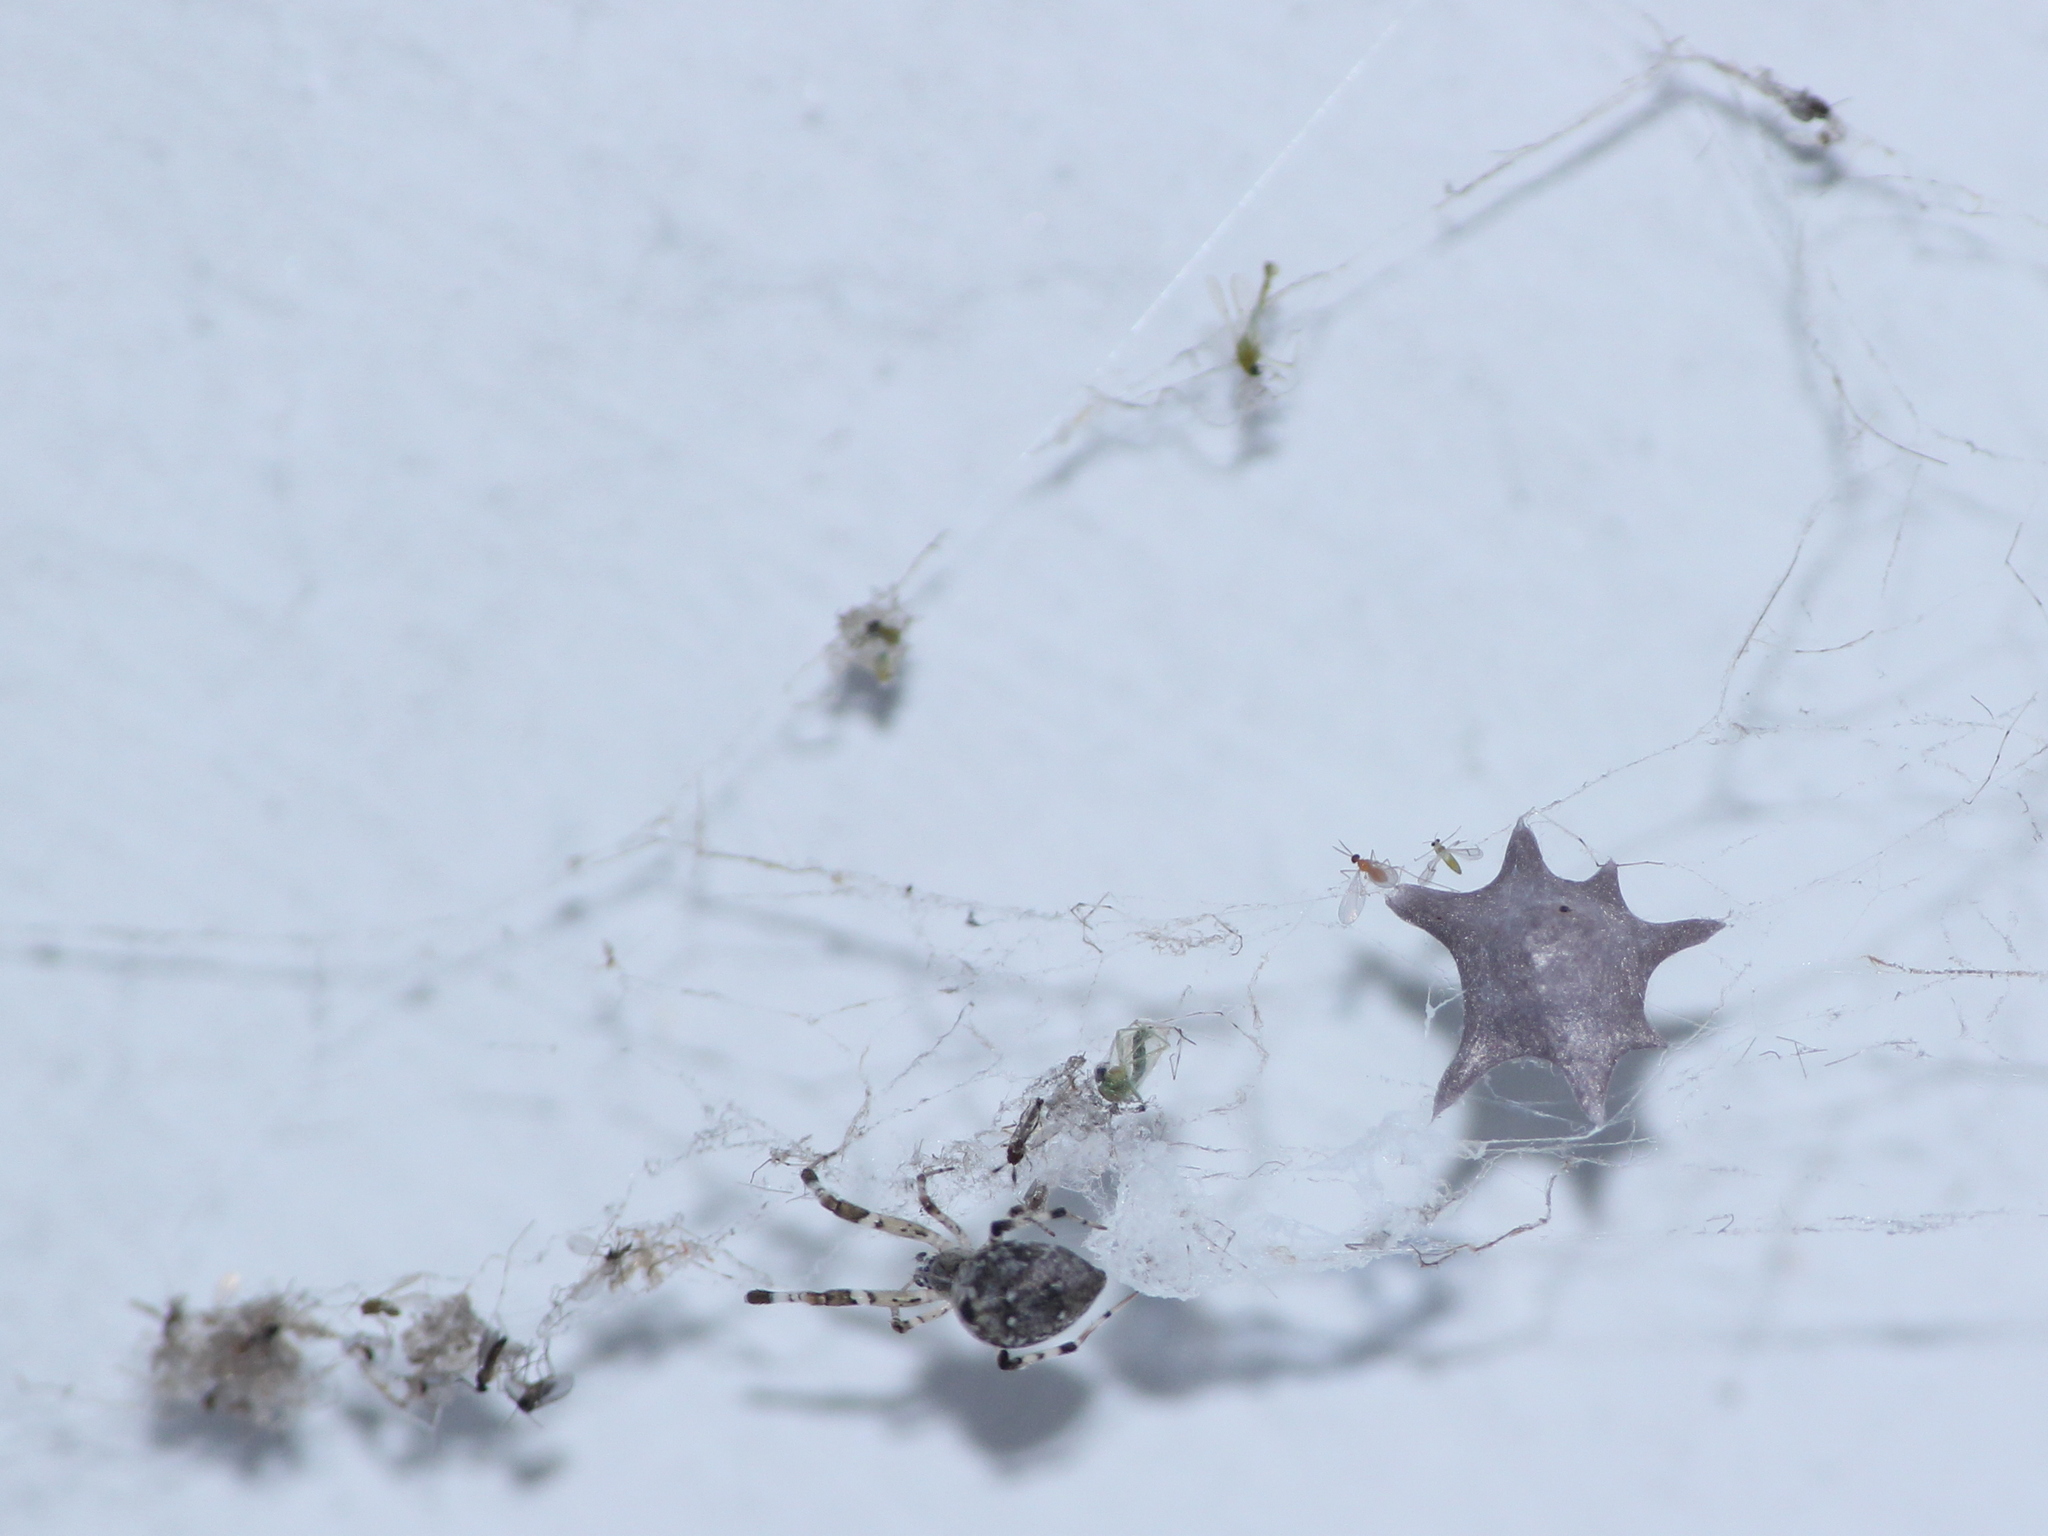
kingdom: Animalia
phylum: Arthropoda
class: Arachnida
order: Araneae
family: Uloboridae
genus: Zosis
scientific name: Zosis geniculata
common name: Hackled orb weavers
